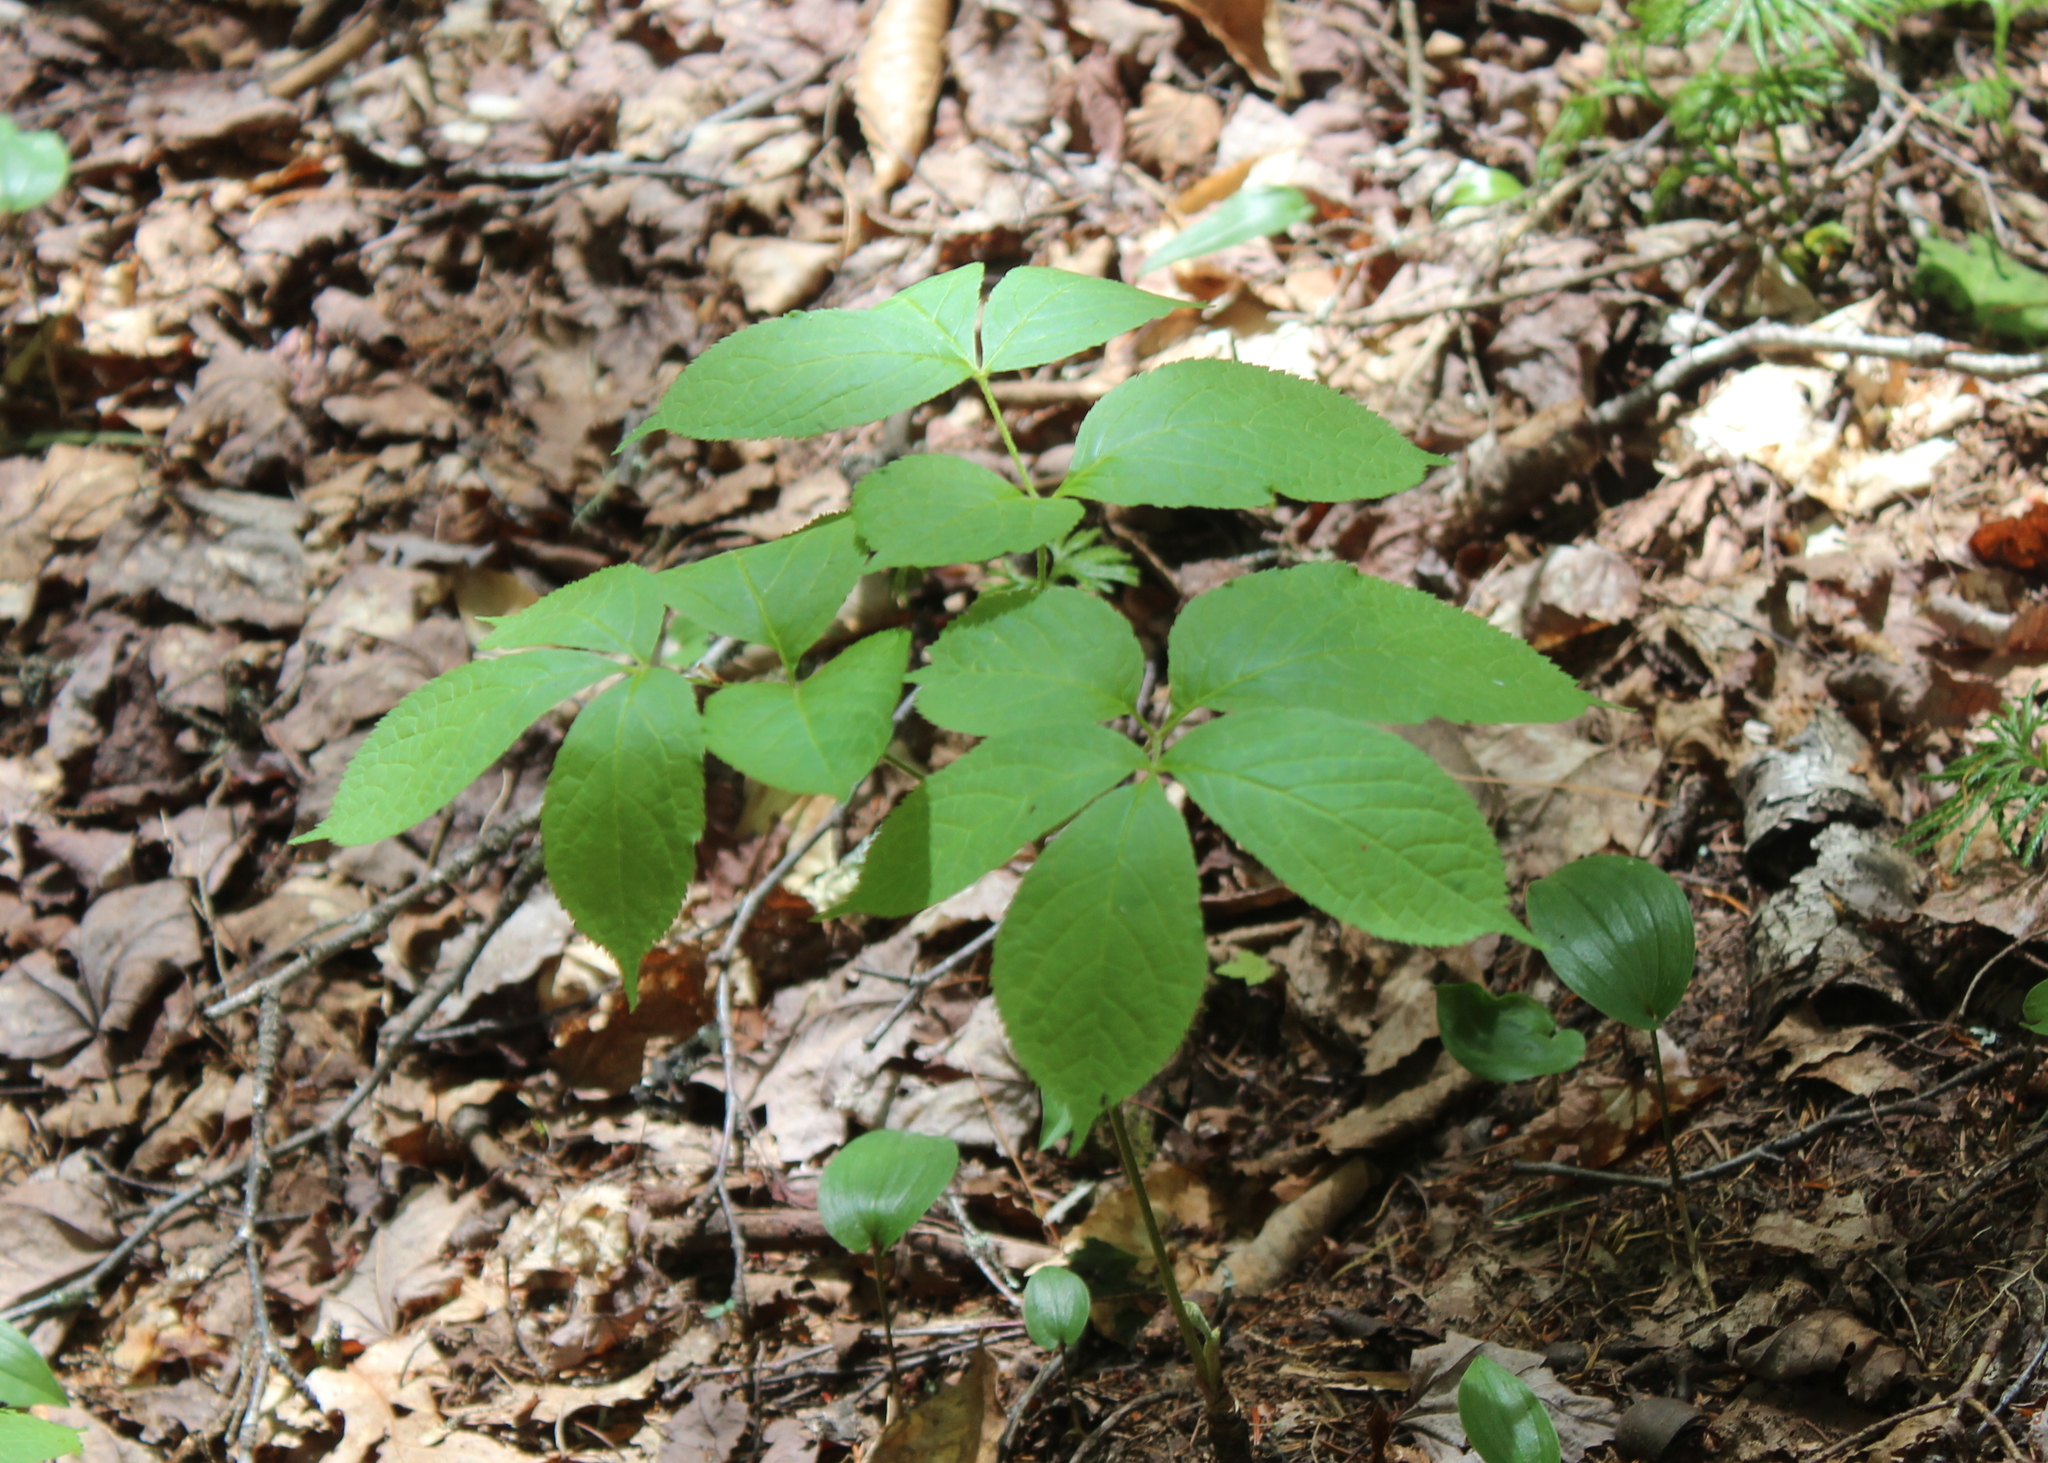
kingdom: Plantae
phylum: Tracheophyta
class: Magnoliopsida
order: Apiales
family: Araliaceae
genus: Aralia
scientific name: Aralia nudicaulis
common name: Wild sarsaparilla
